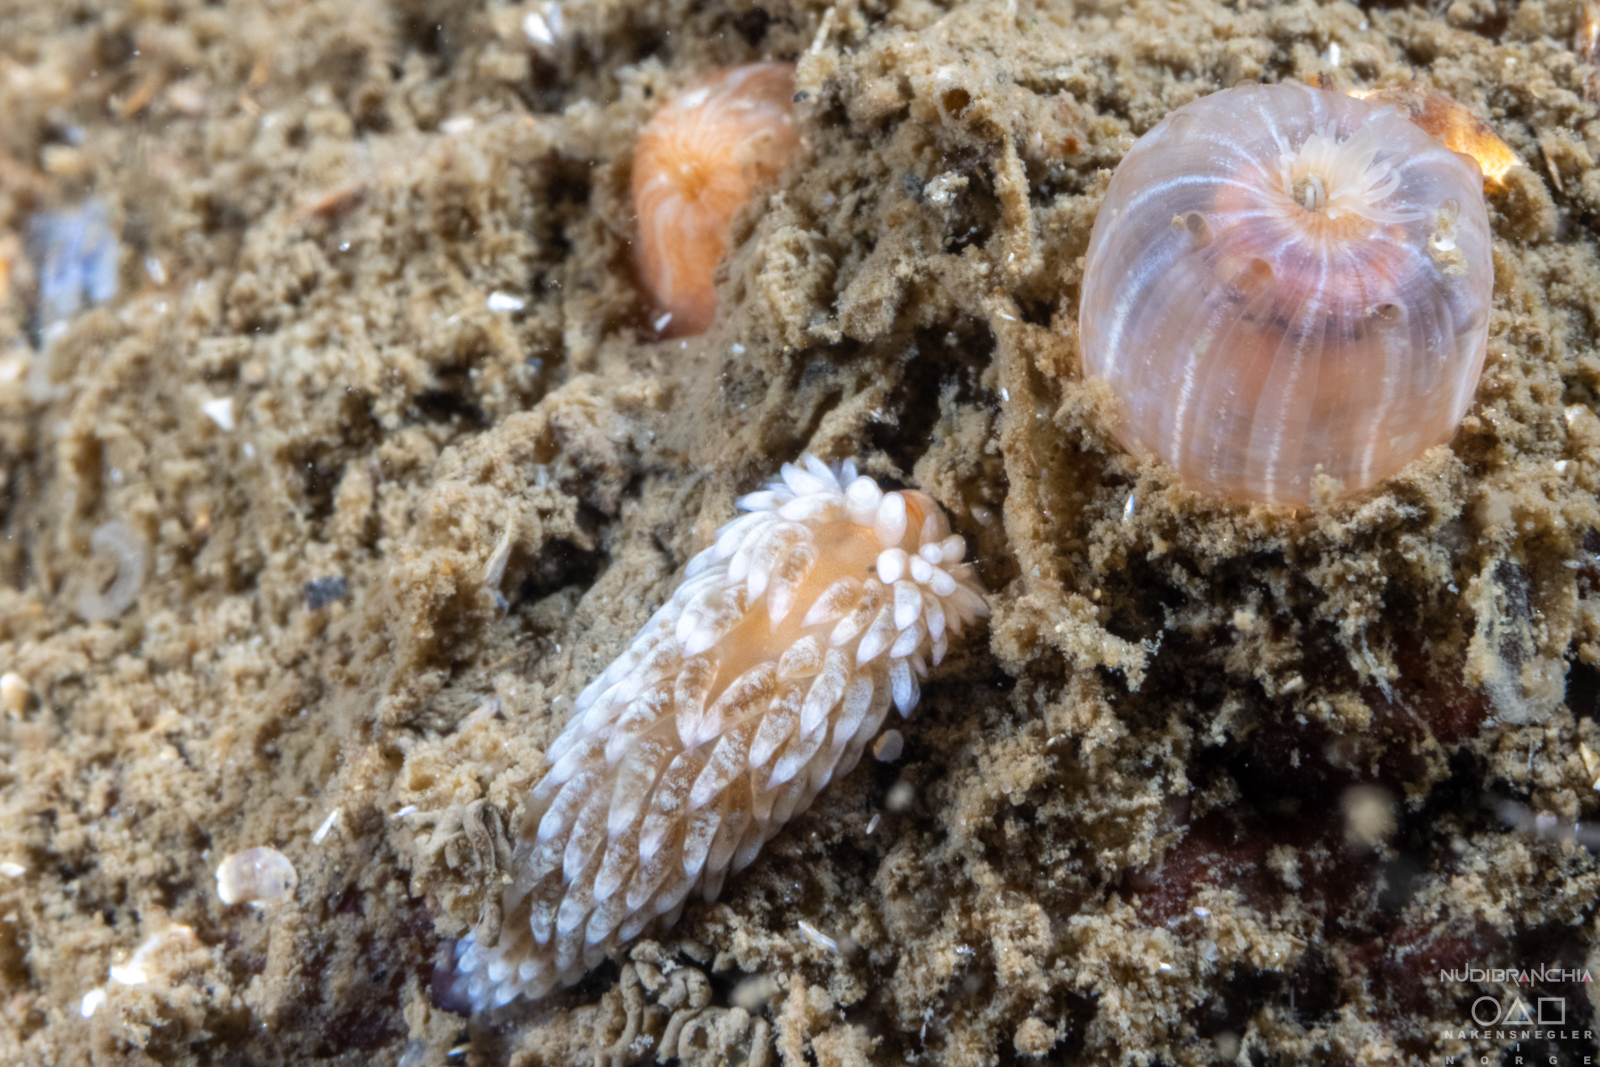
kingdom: Animalia
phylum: Mollusca
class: Gastropoda
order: Nudibranchia
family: Aeolidiidae
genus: Aeolidiella
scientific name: Aeolidiella glauca
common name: Orange-brown aeolid
